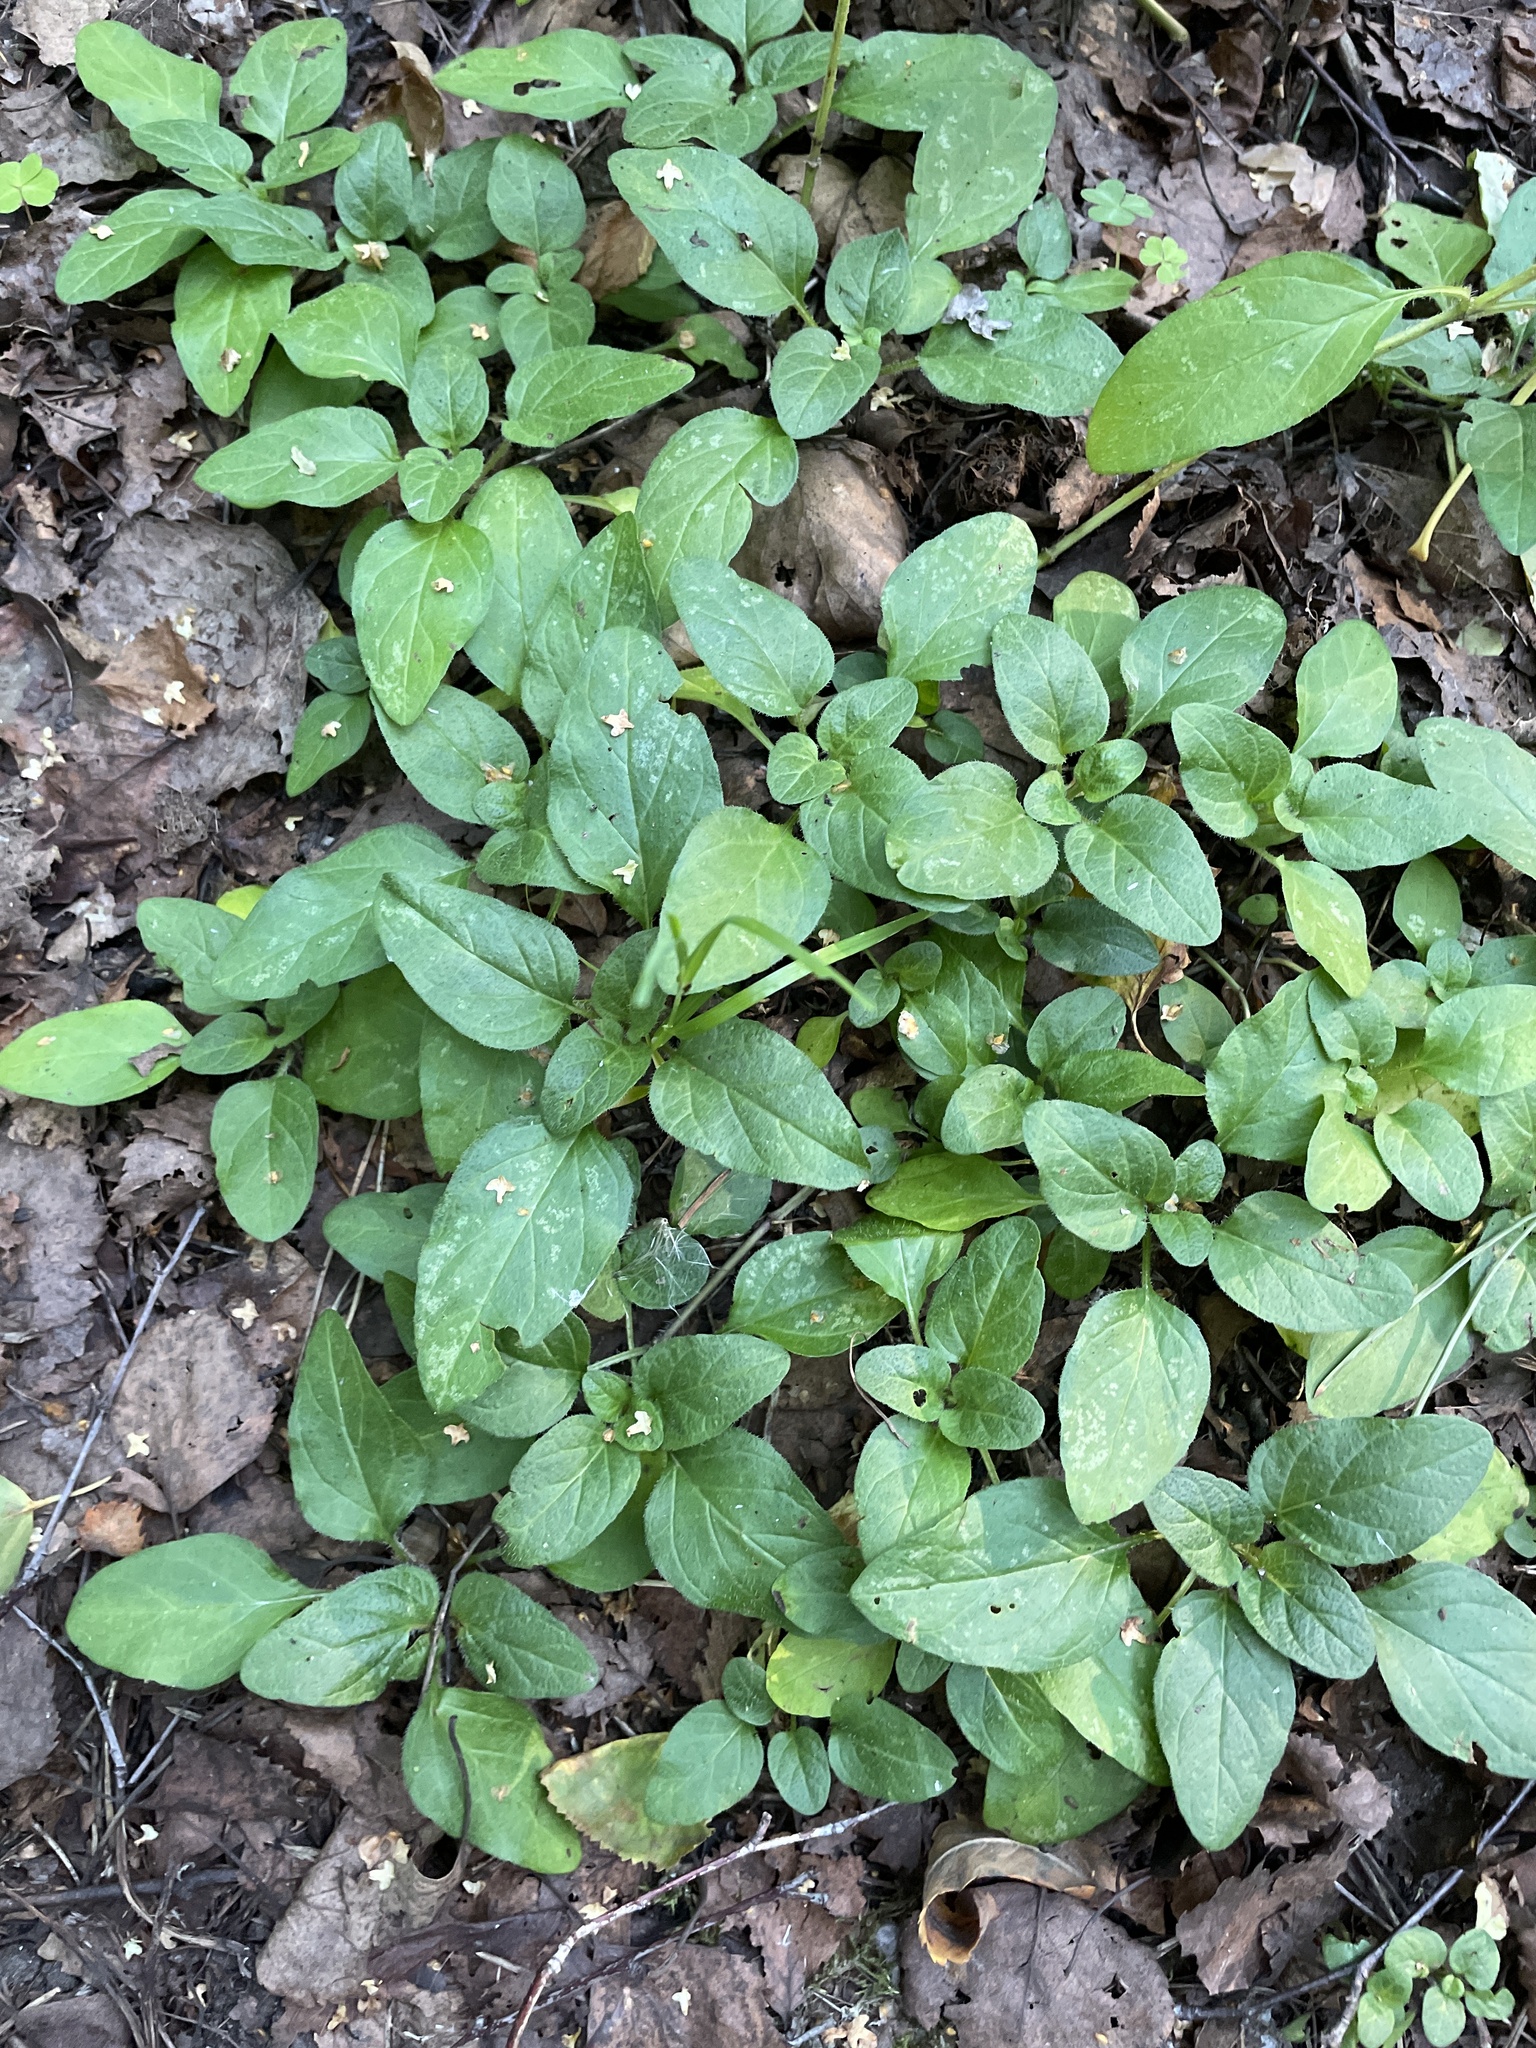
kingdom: Plantae
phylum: Tracheophyta
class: Magnoliopsida
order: Lamiales
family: Lamiaceae
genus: Prunella
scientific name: Prunella vulgaris
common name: Heal-all
